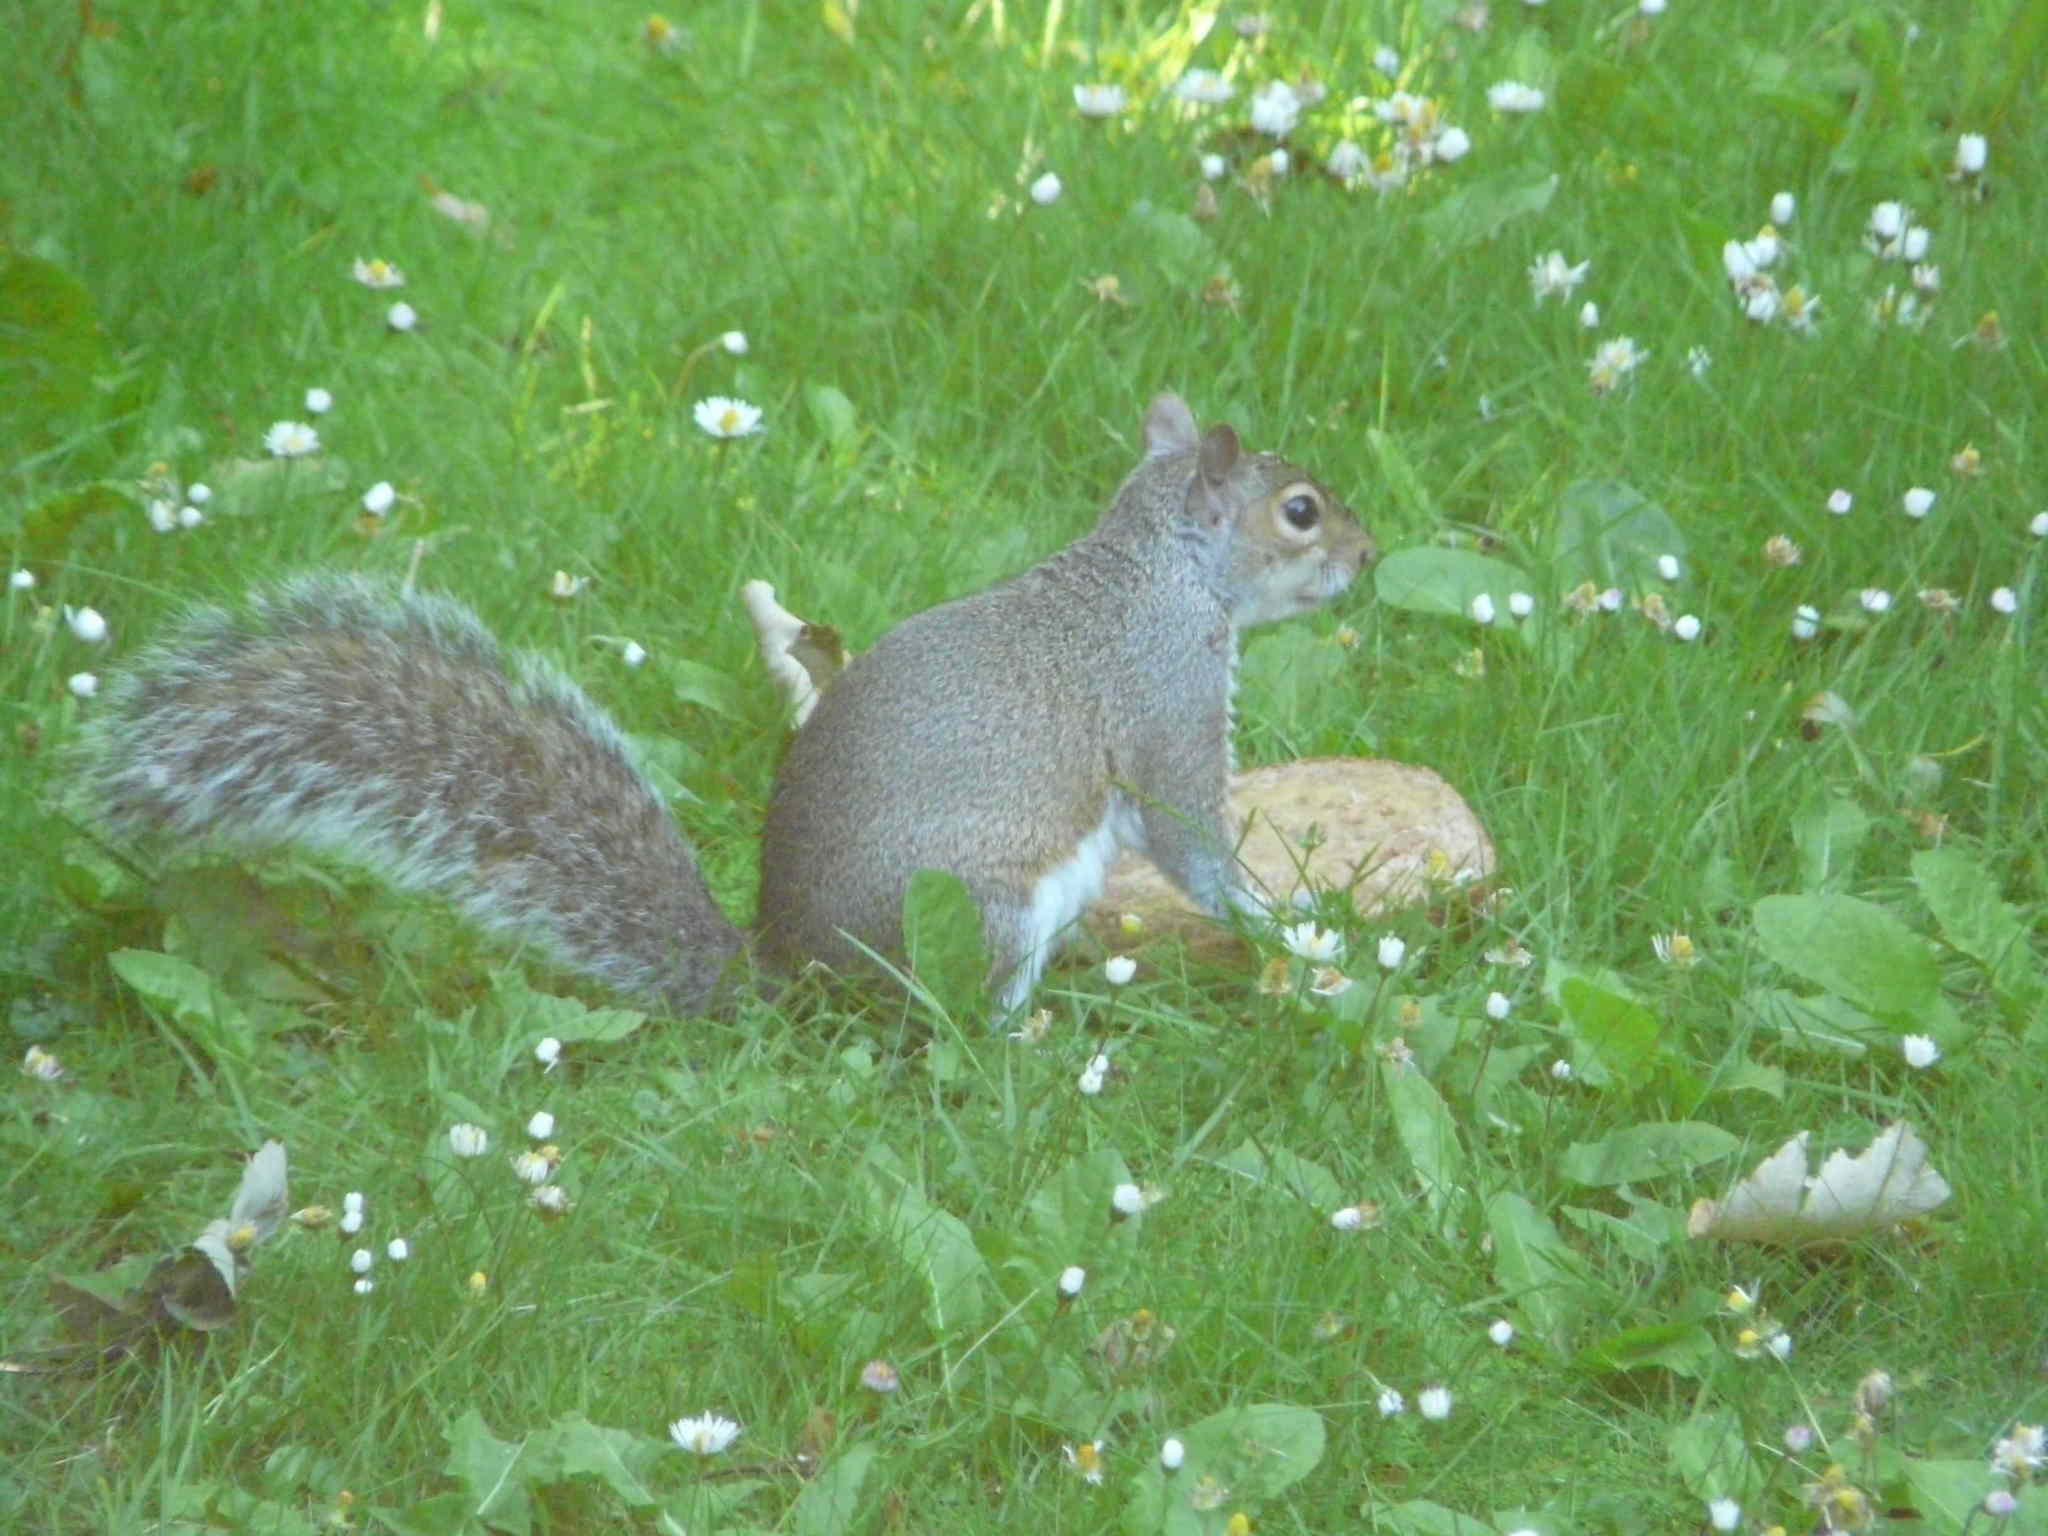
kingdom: Animalia
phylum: Chordata
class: Mammalia
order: Rodentia
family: Sciuridae
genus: Sciurus
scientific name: Sciurus carolinensis
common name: Eastern gray squirrel
